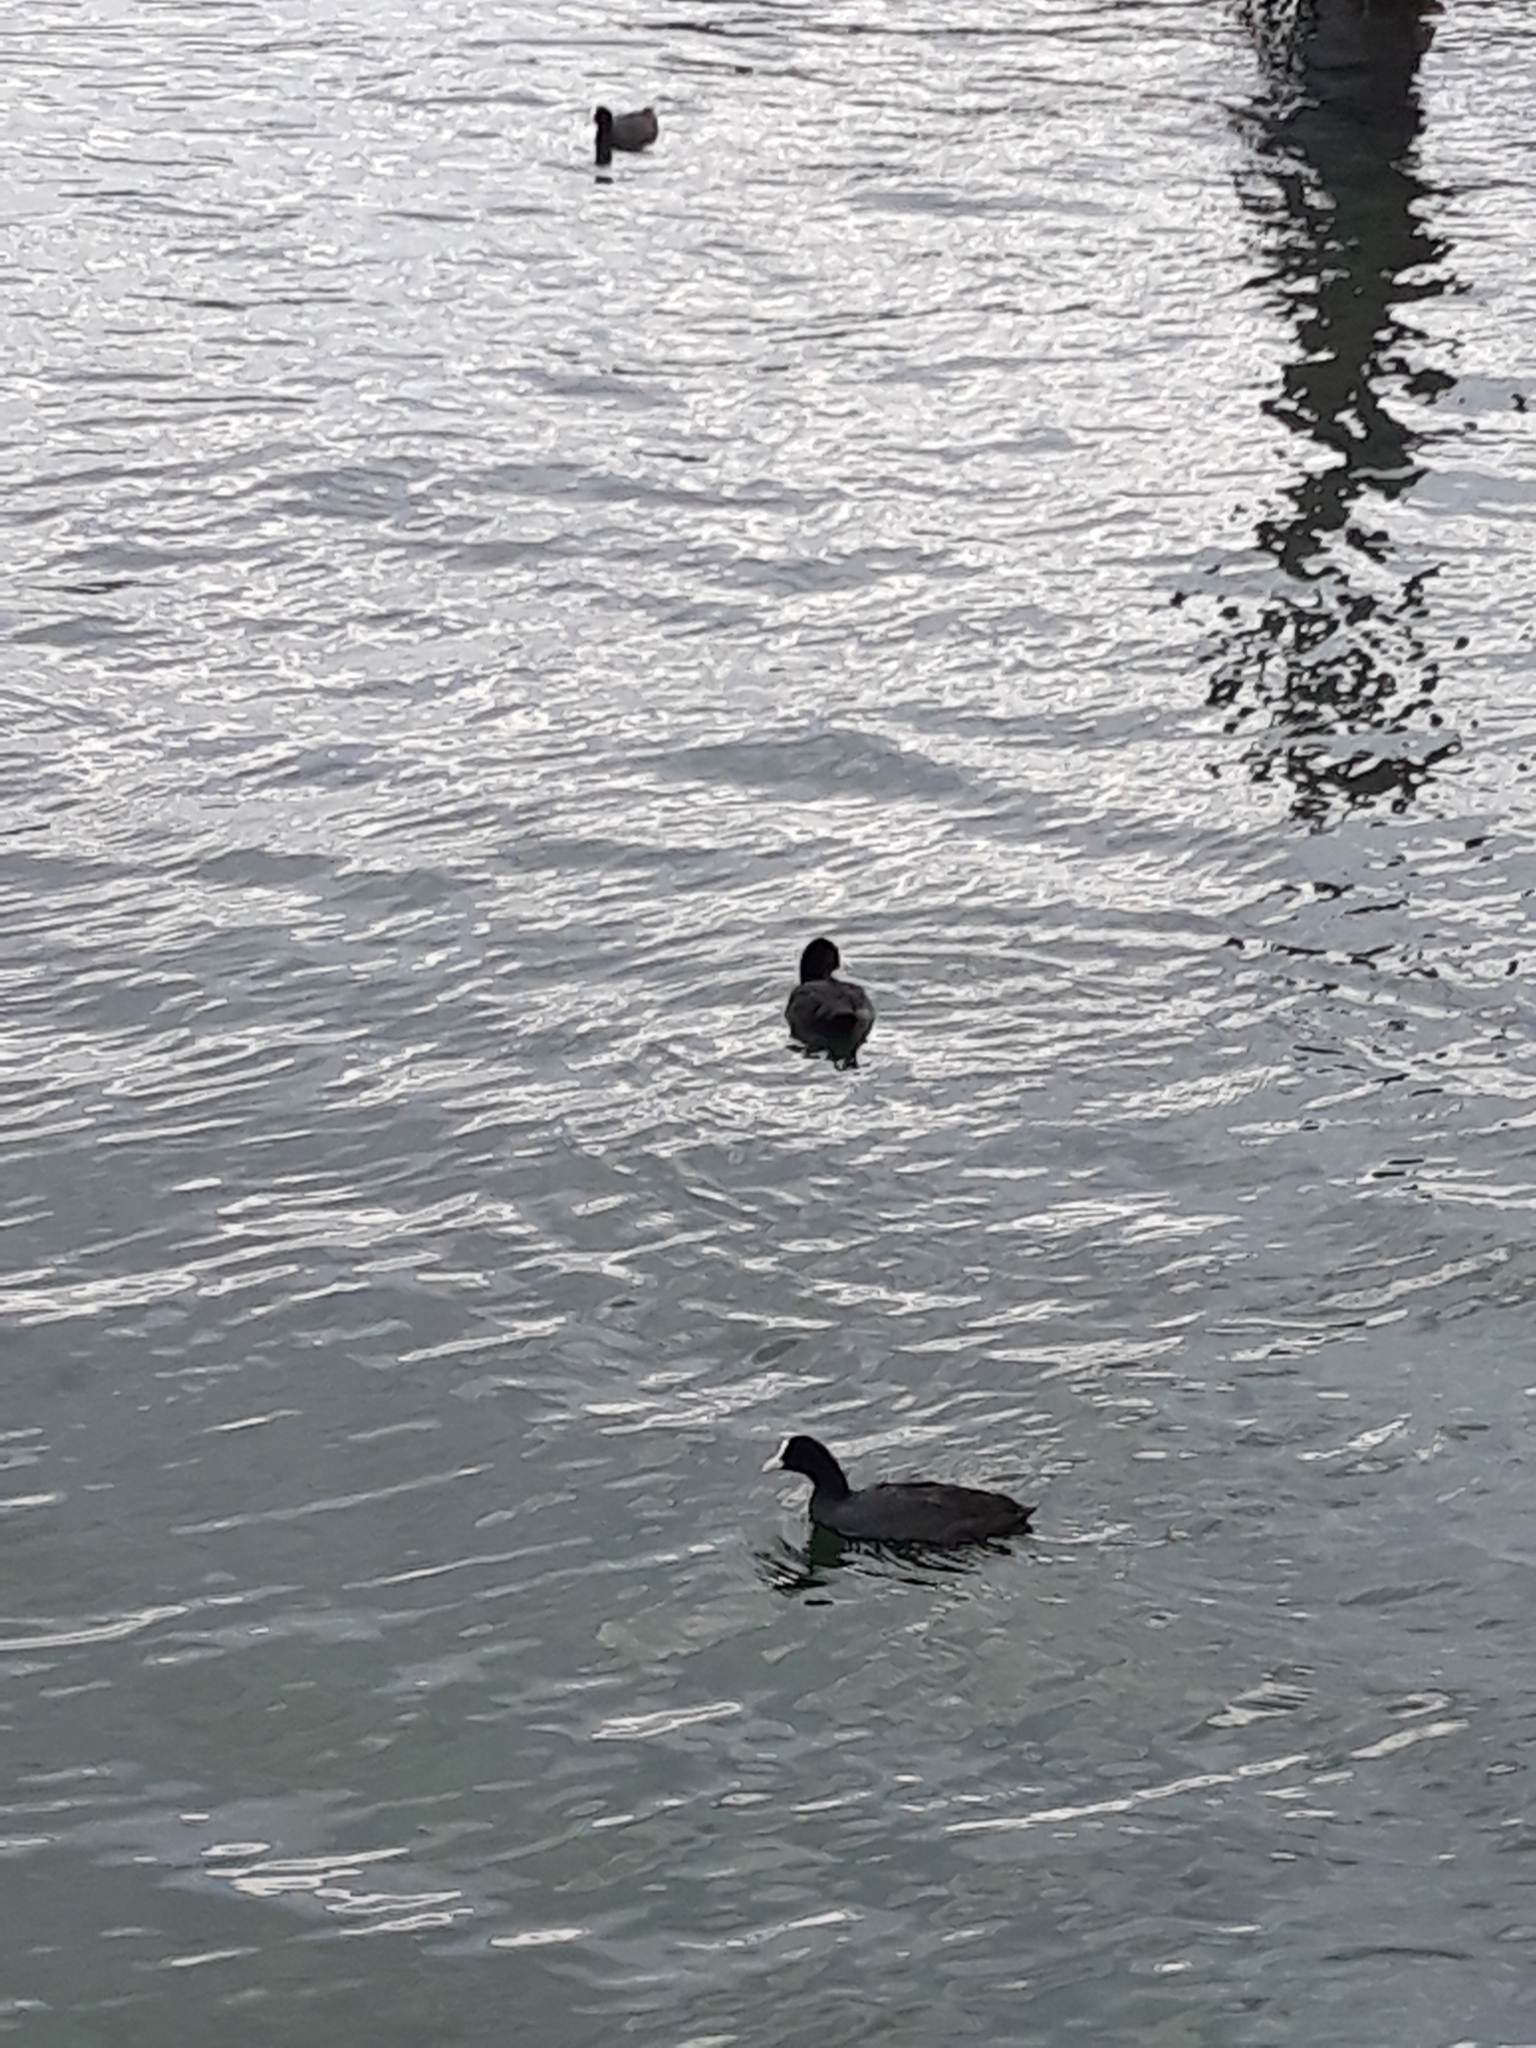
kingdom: Animalia
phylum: Chordata
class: Aves
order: Gruiformes
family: Rallidae
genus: Fulica
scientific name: Fulica atra
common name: Eurasian coot
